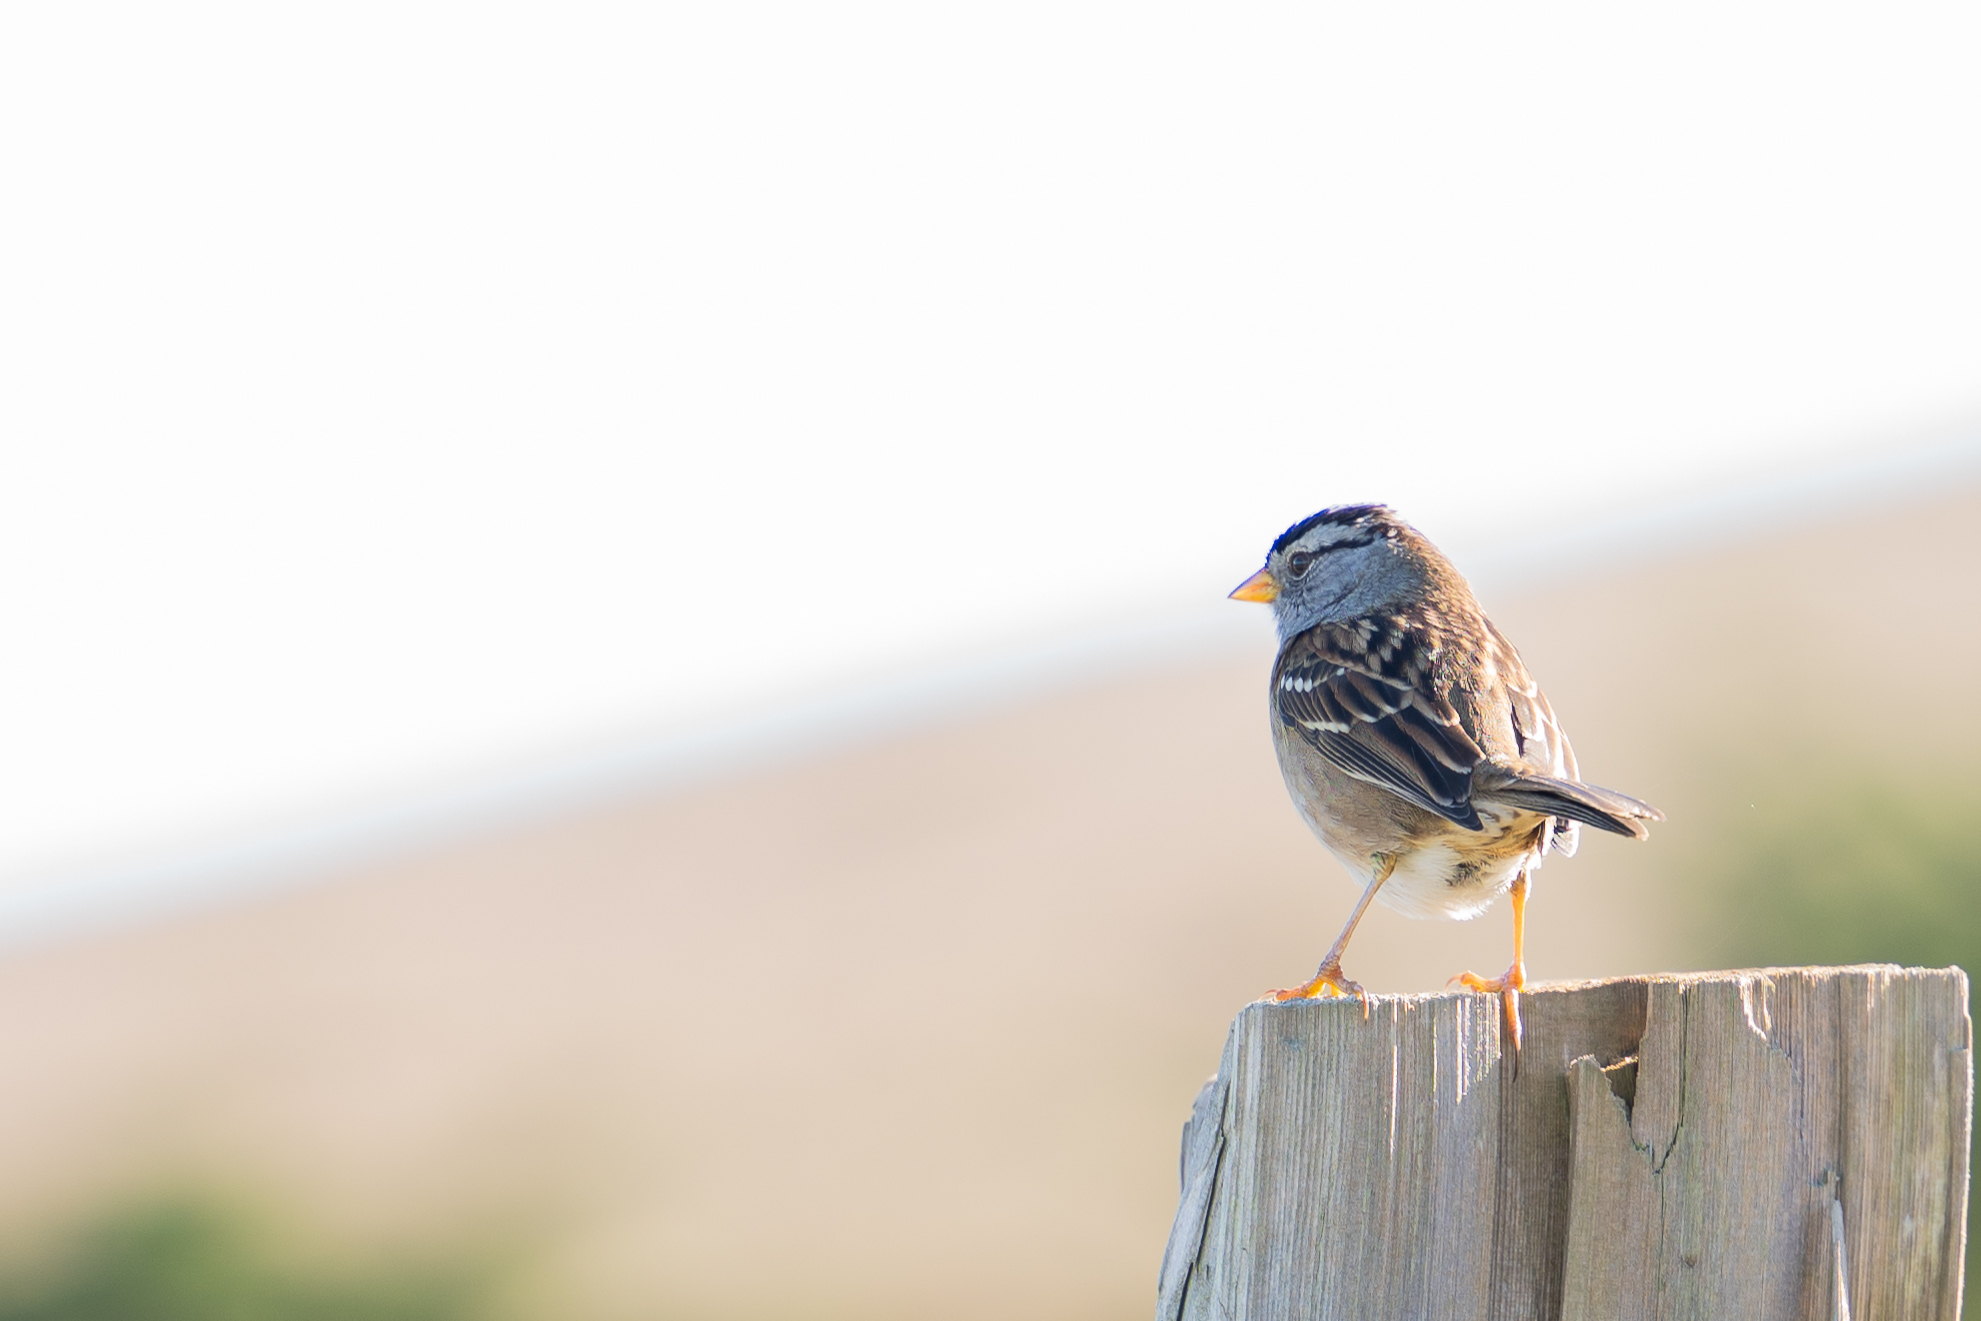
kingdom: Animalia
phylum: Chordata
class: Aves
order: Passeriformes
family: Passerellidae
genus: Zonotrichia
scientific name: Zonotrichia leucophrys
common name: White-crowned sparrow
